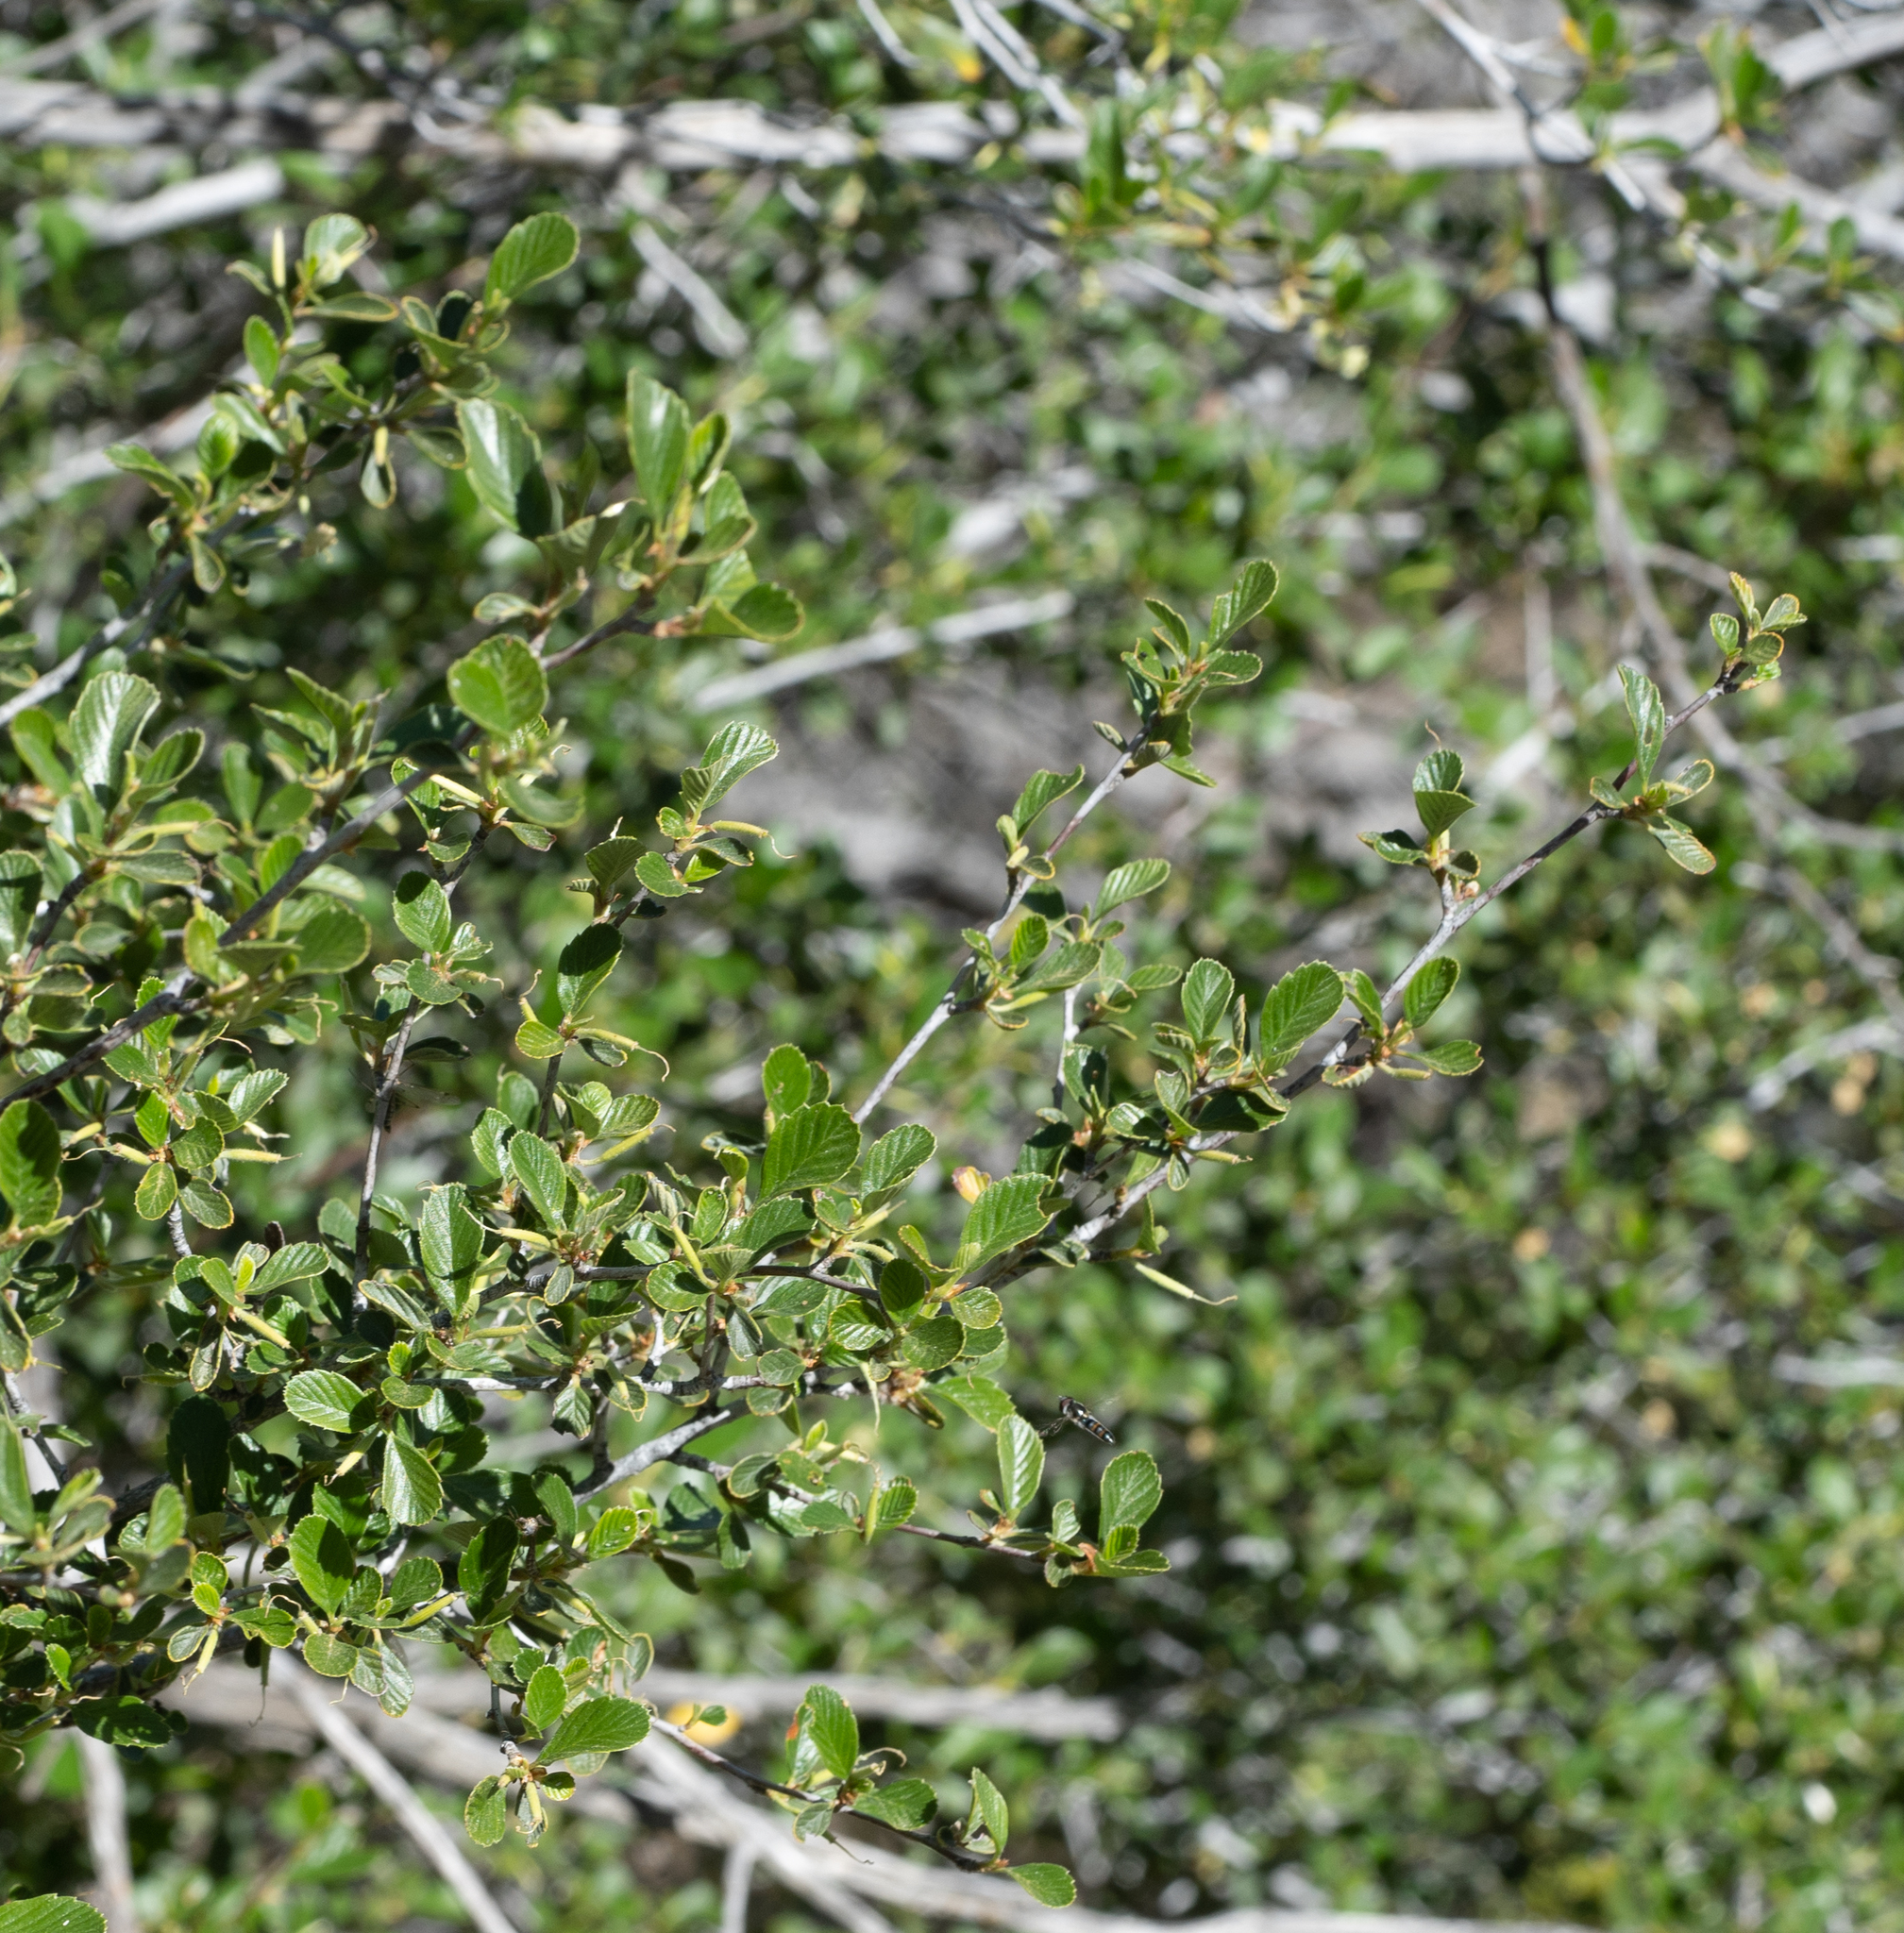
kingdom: Plantae
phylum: Tracheophyta
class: Magnoliopsida
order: Rosales
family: Rosaceae
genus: Cercocarpus
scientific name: Cercocarpus betuloides
